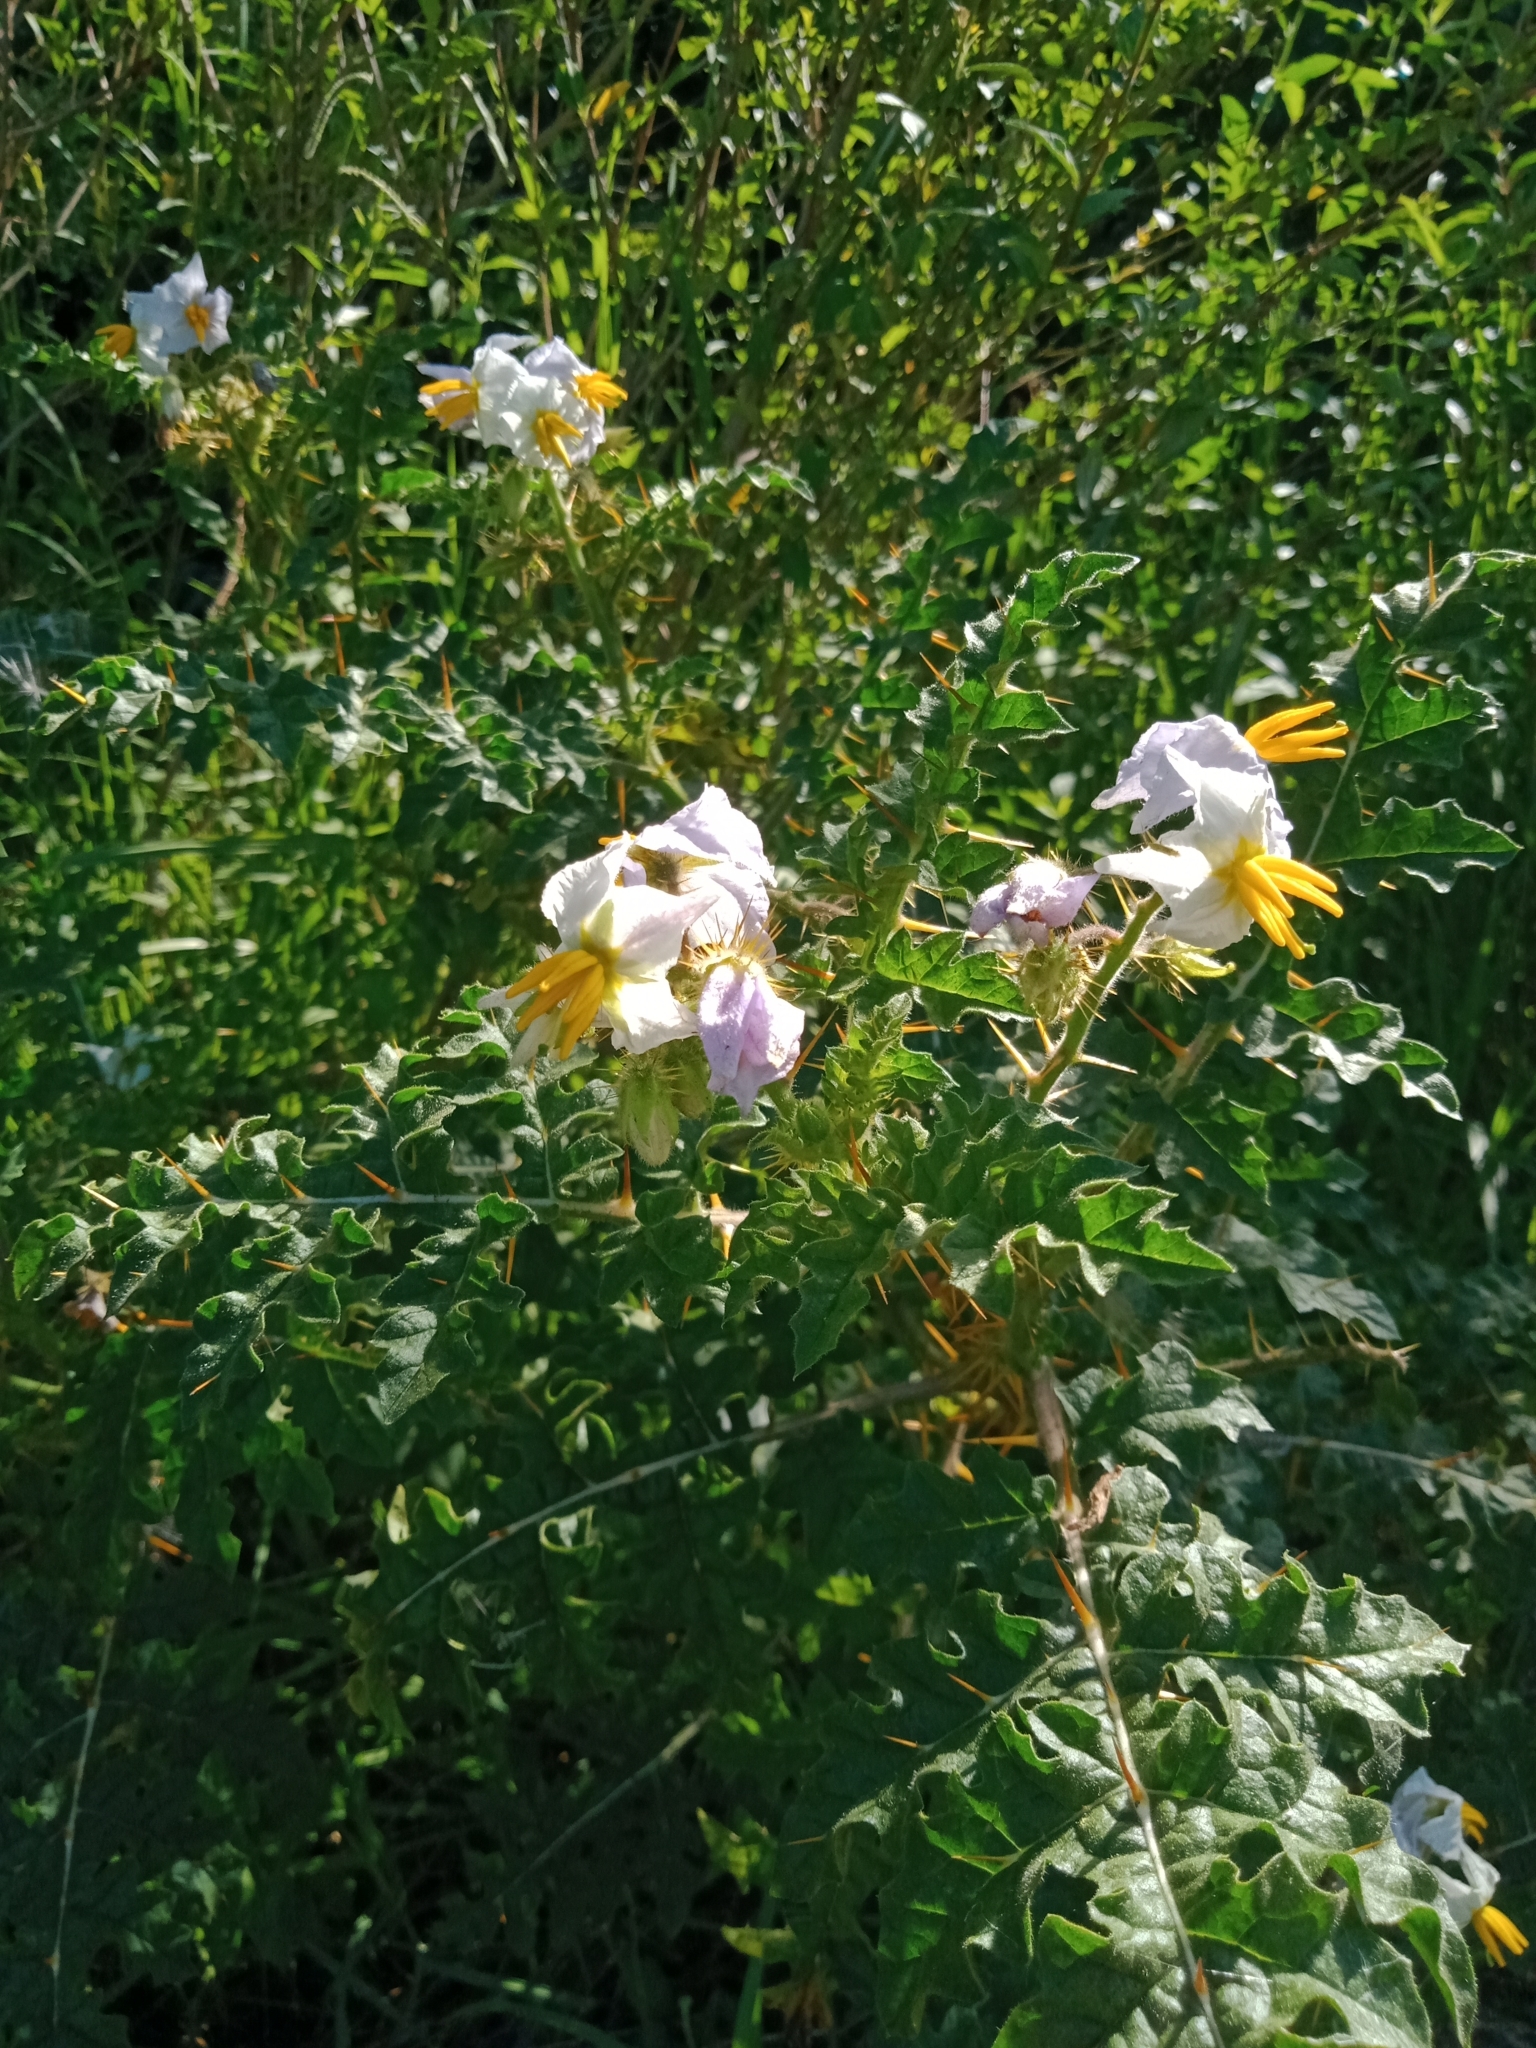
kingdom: Plantae
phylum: Tracheophyta
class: Magnoliopsida
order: Solanales
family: Solanaceae
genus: Solanum
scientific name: Solanum sisymbriifolium
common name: Red buffalo-bur
